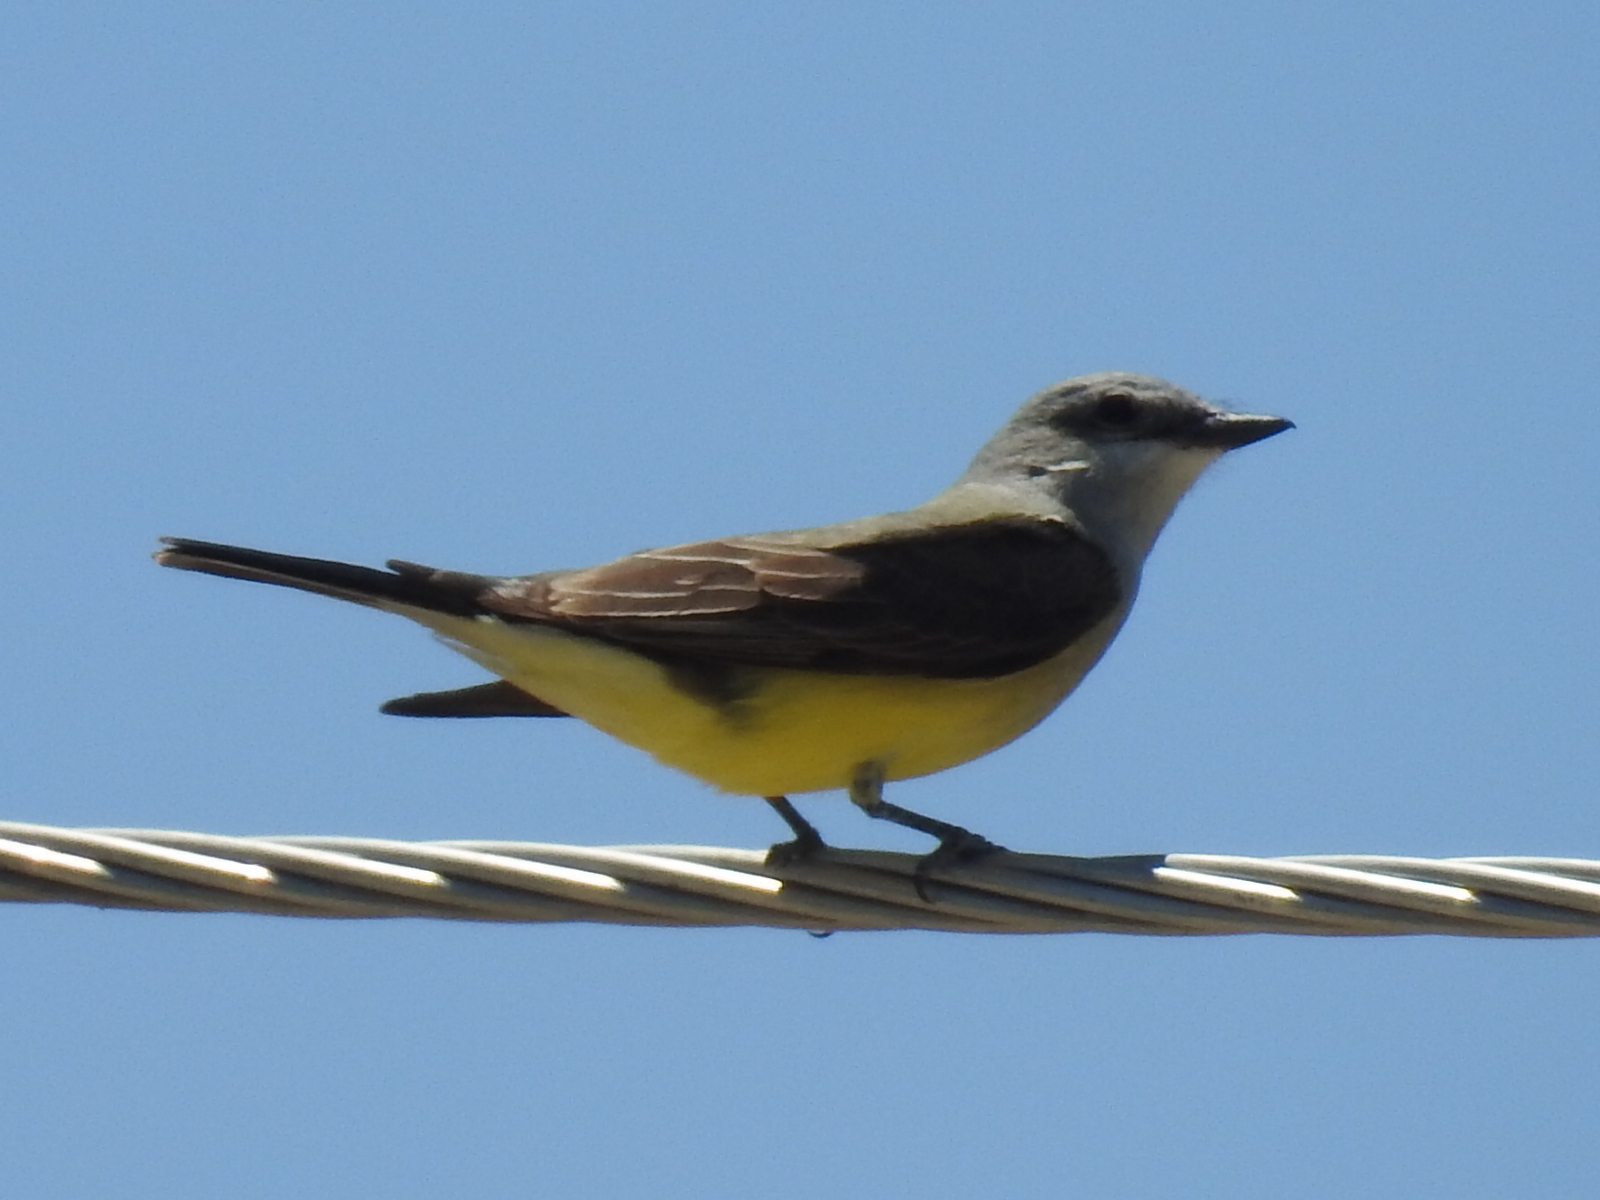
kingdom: Animalia
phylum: Chordata
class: Aves
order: Passeriformes
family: Tyrannidae
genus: Tyrannus
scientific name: Tyrannus verticalis
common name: Western kingbird
